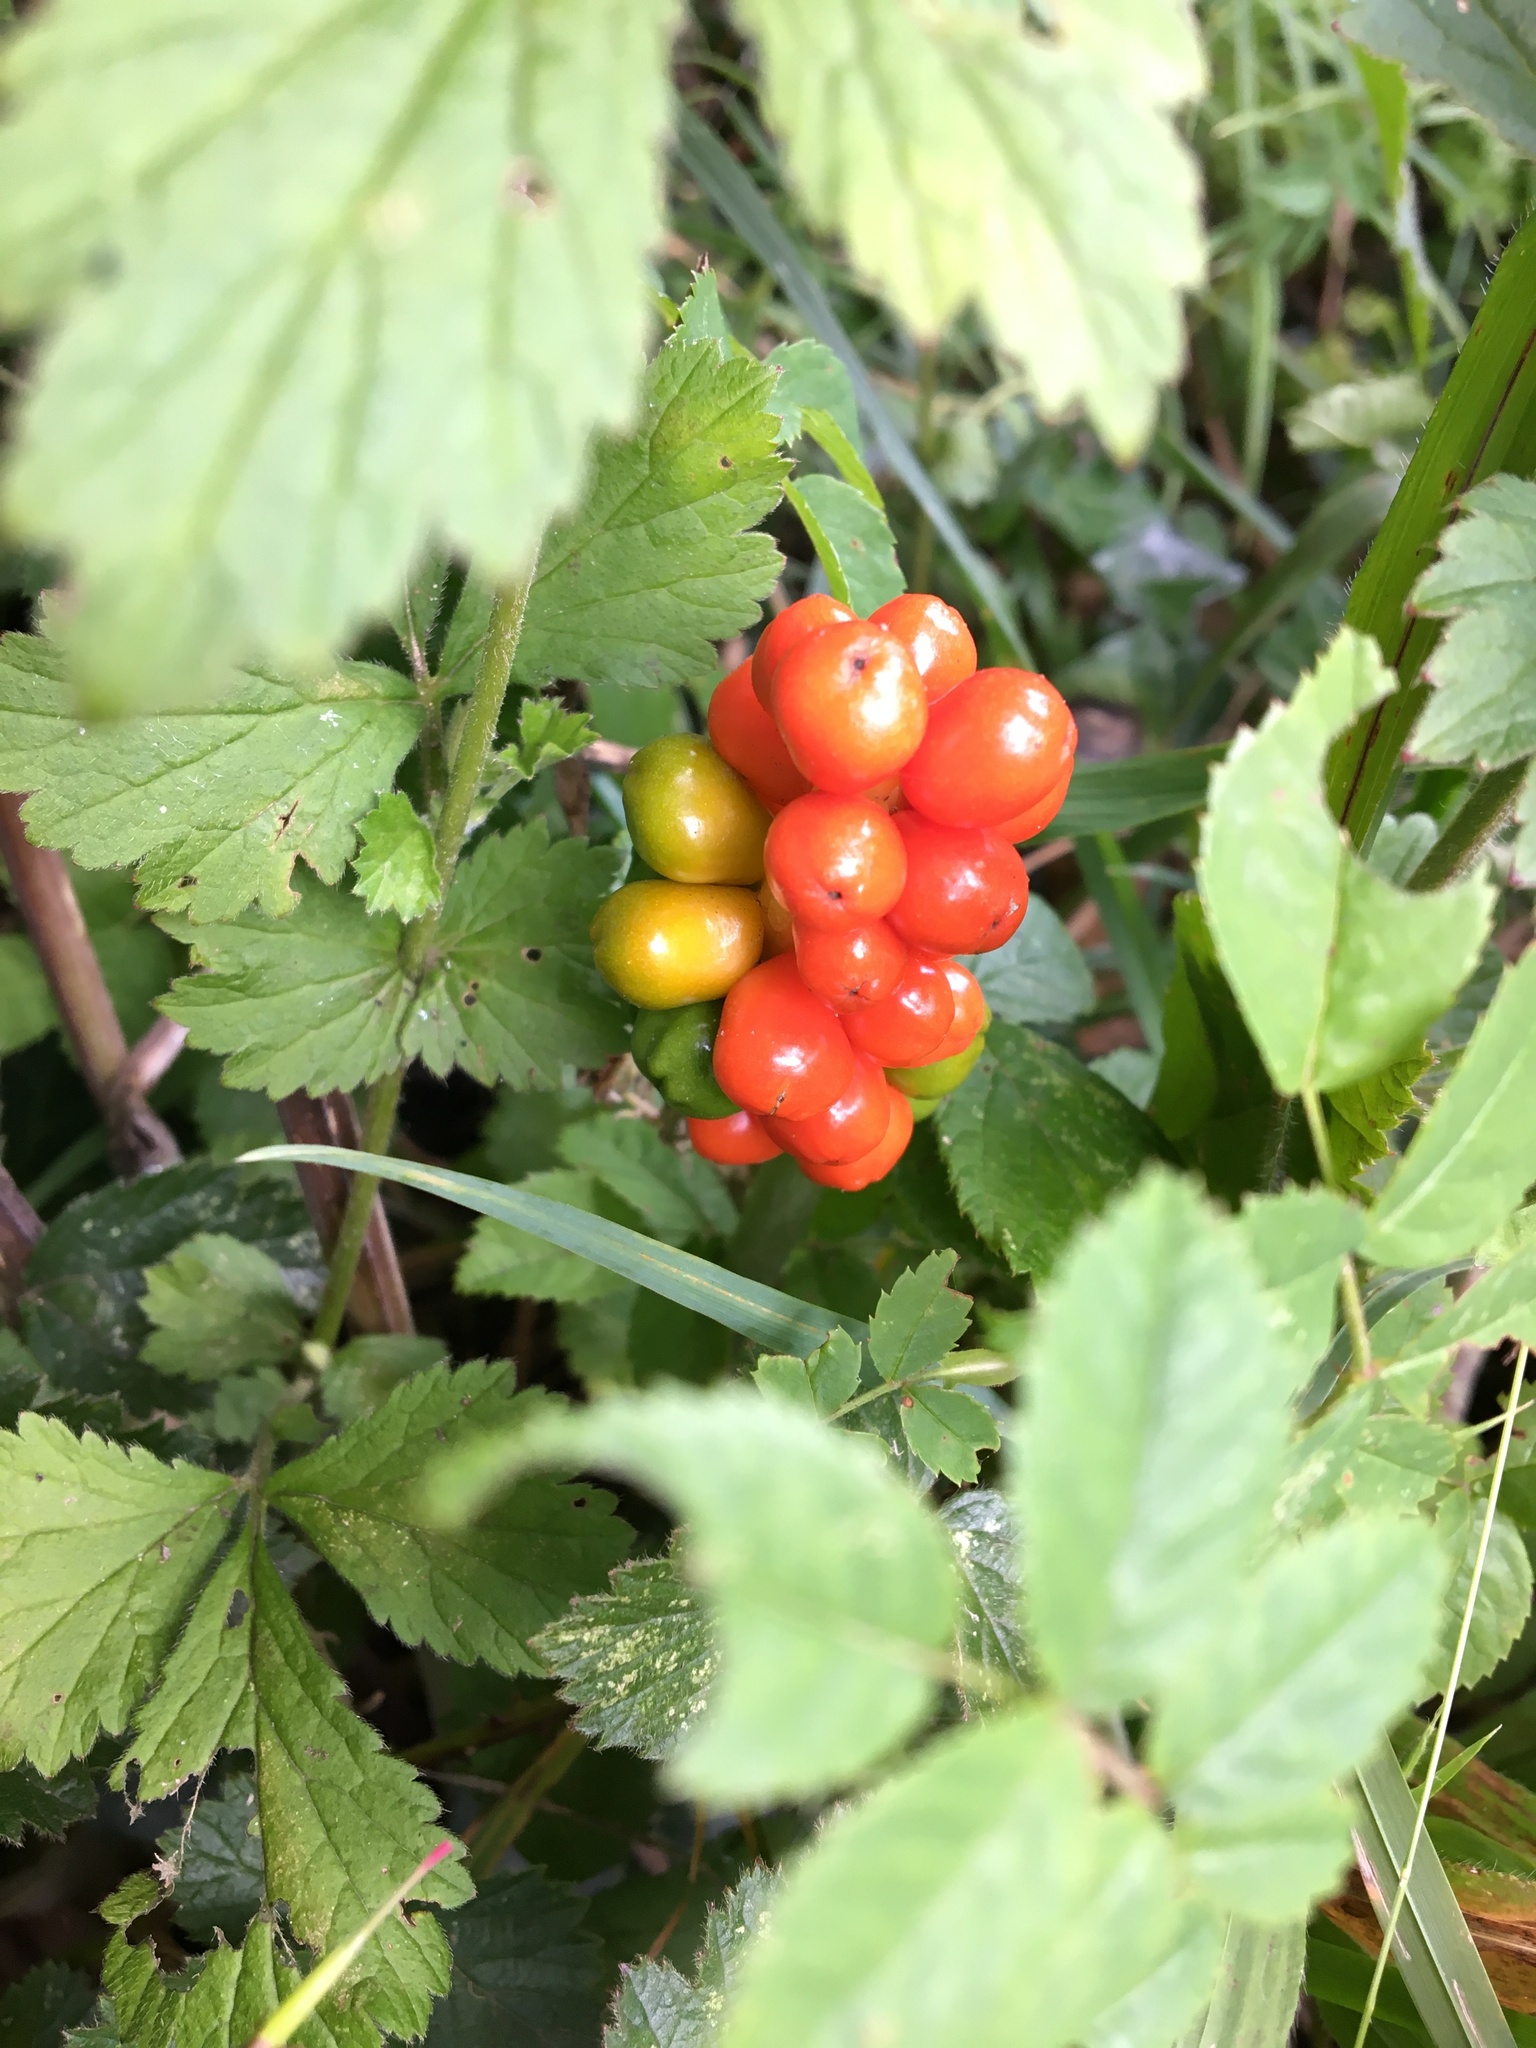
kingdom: Plantae
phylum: Tracheophyta
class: Liliopsida
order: Alismatales
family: Araceae
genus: Arum
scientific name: Arum maculatum
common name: Lords-and-ladies
